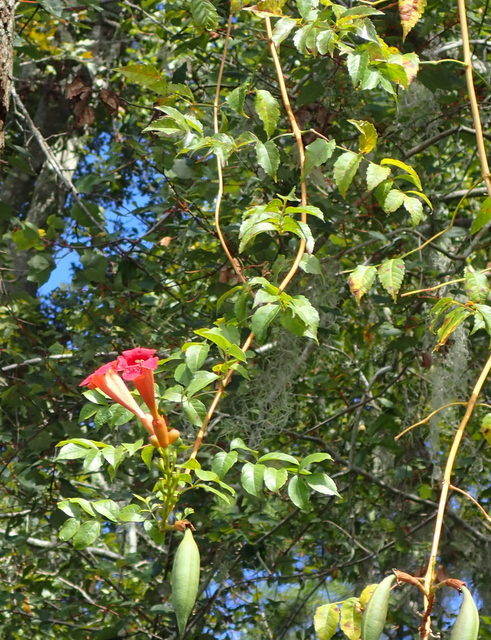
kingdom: Plantae
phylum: Tracheophyta
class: Magnoliopsida
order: Lamiales
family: Bignoniaceae
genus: Campsis
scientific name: Campsis radicans
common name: Trumpet-creeper
